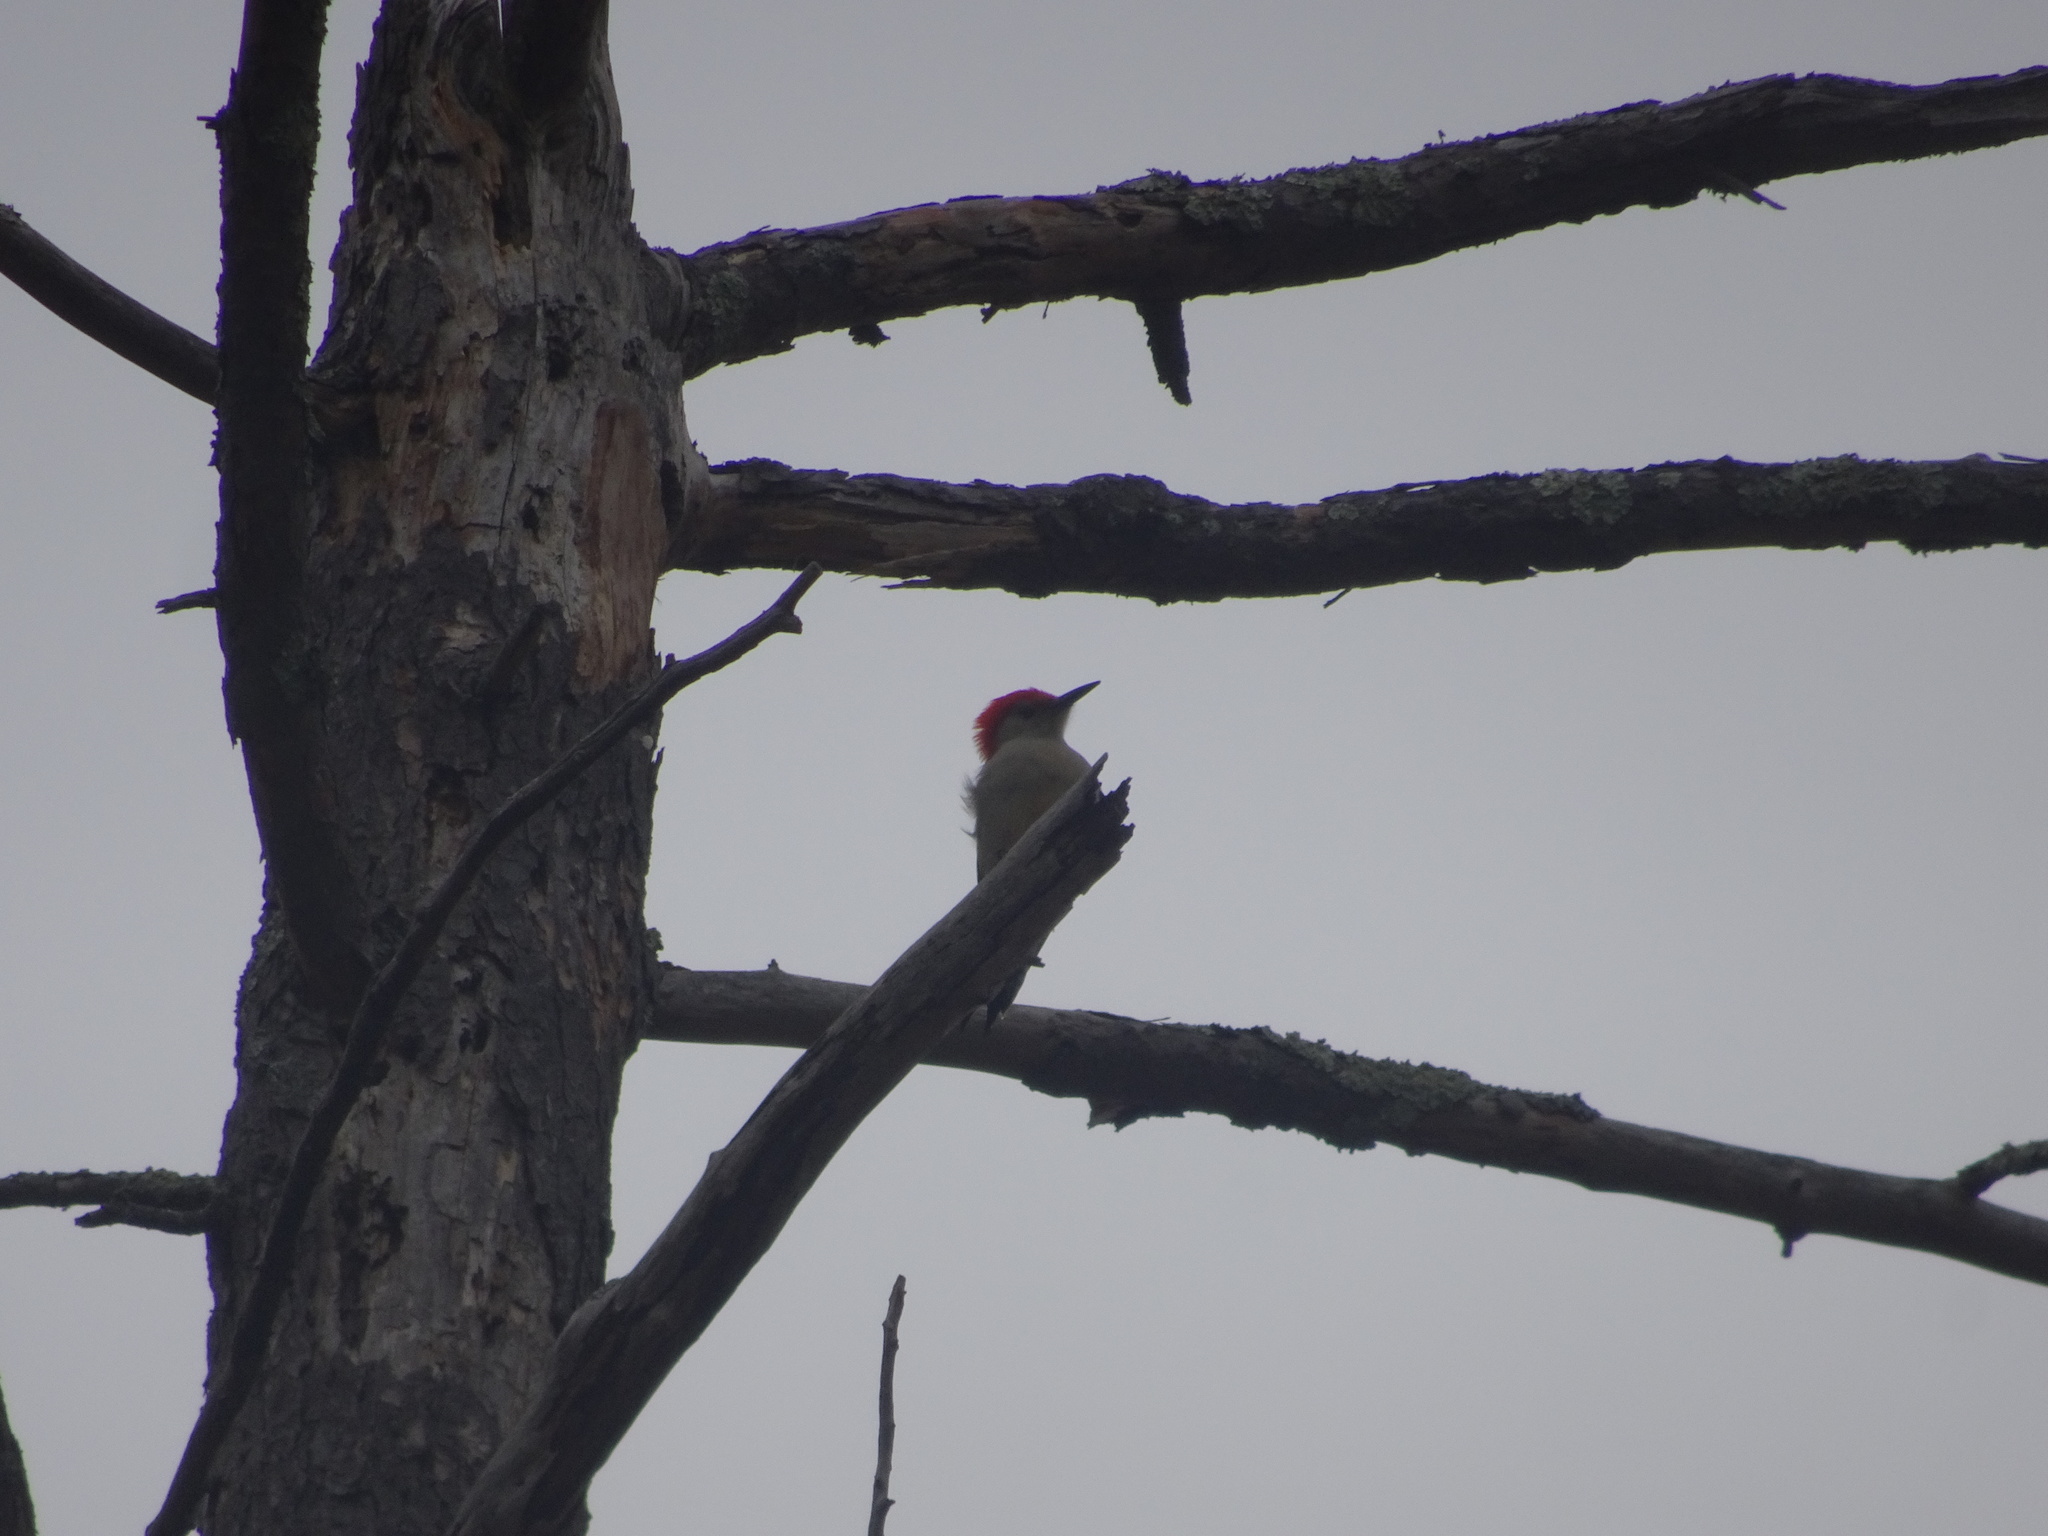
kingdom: Animalia
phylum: Chordata
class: Aves
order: Piciformes
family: Picidae
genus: Melanerpes
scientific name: Melanerpes carolinus
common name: Red-bellied woodpecker
